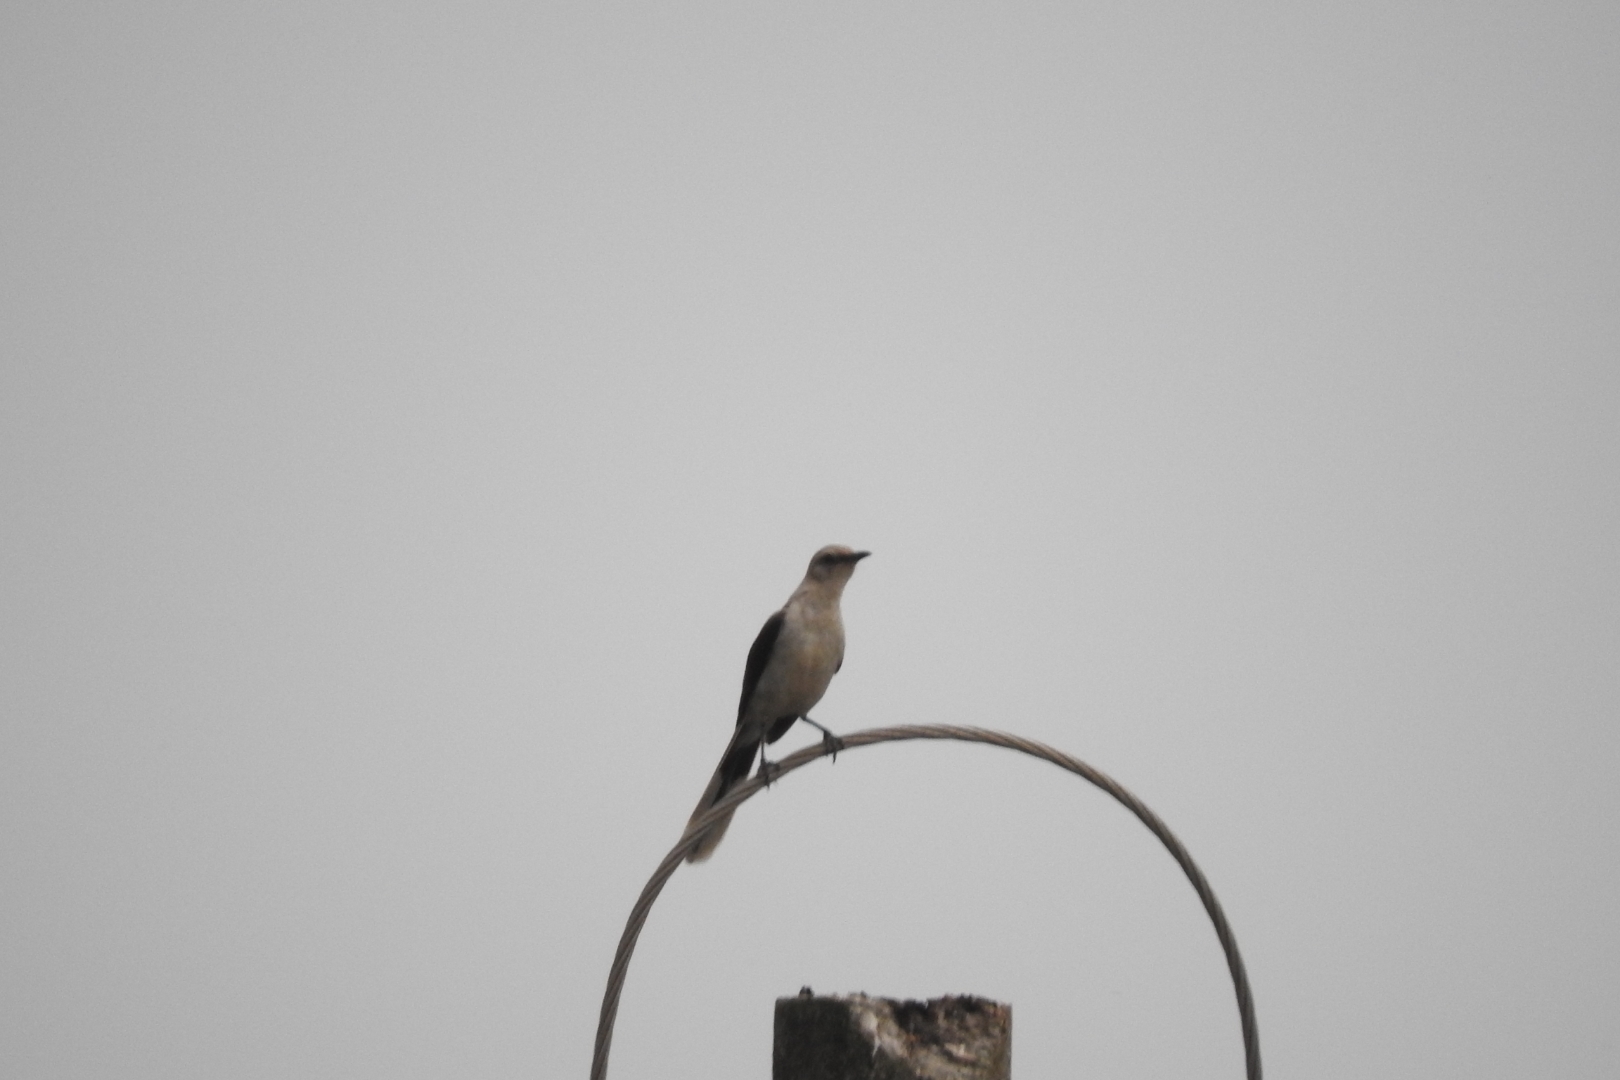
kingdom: Animalia
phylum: Chordata
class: Aves
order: Passeriformes
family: Mimidae
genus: Mimus
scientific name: Mimus gilvus
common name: Tropical mockingbird
